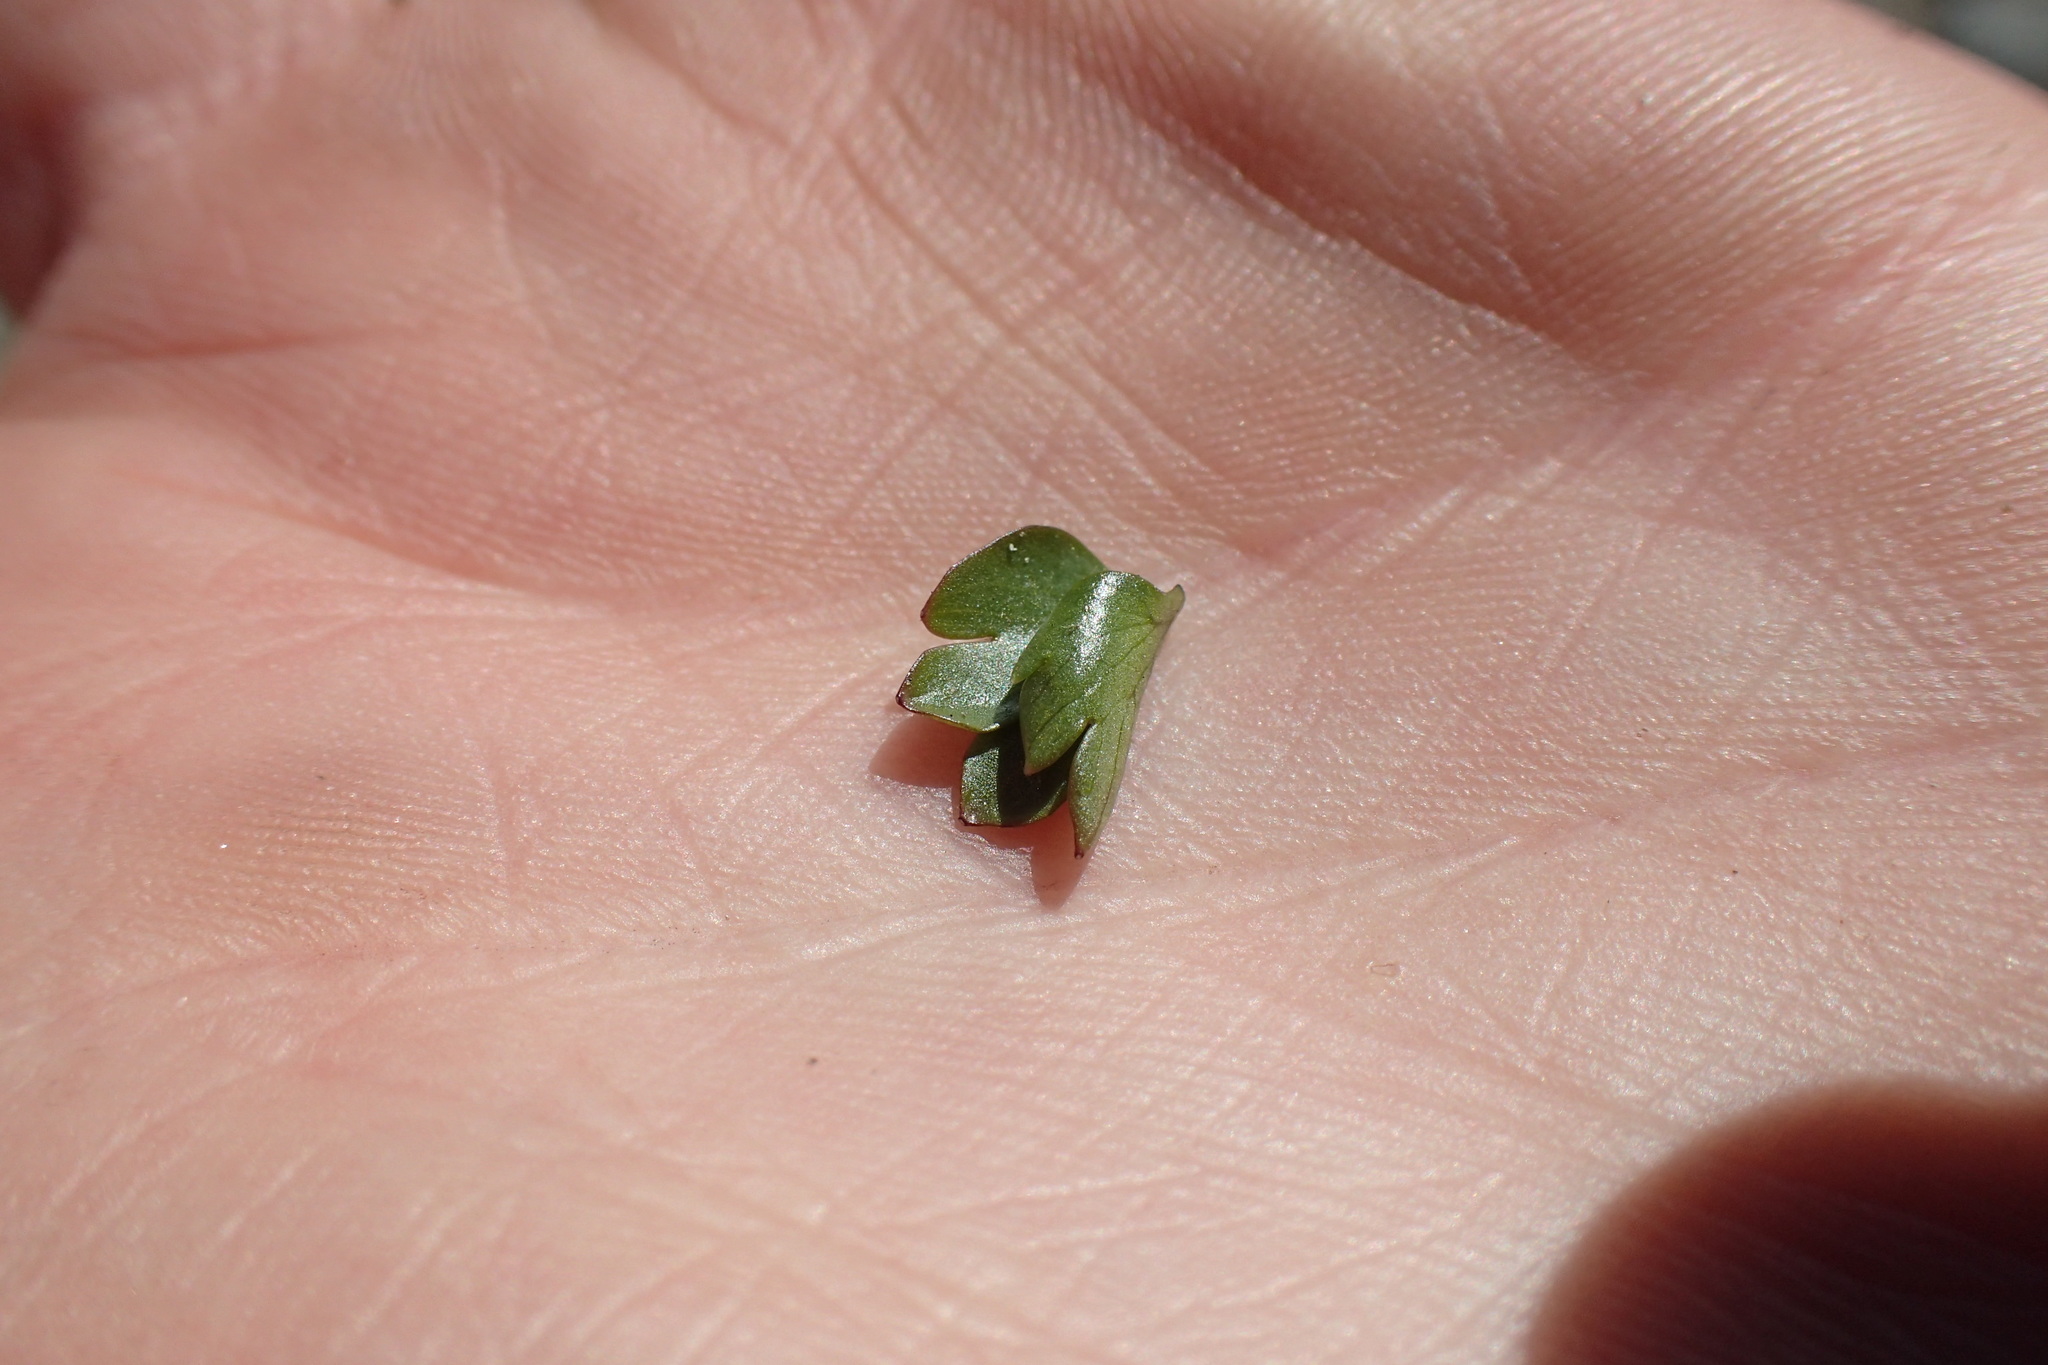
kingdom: Plantae
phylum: Tracheophyta
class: Magnoliopsida
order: Ranunculales
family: Ranunculaceae
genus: Ranunculus
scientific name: Ranunculus eschscholtzii
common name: Eschscholtz's buttercup
